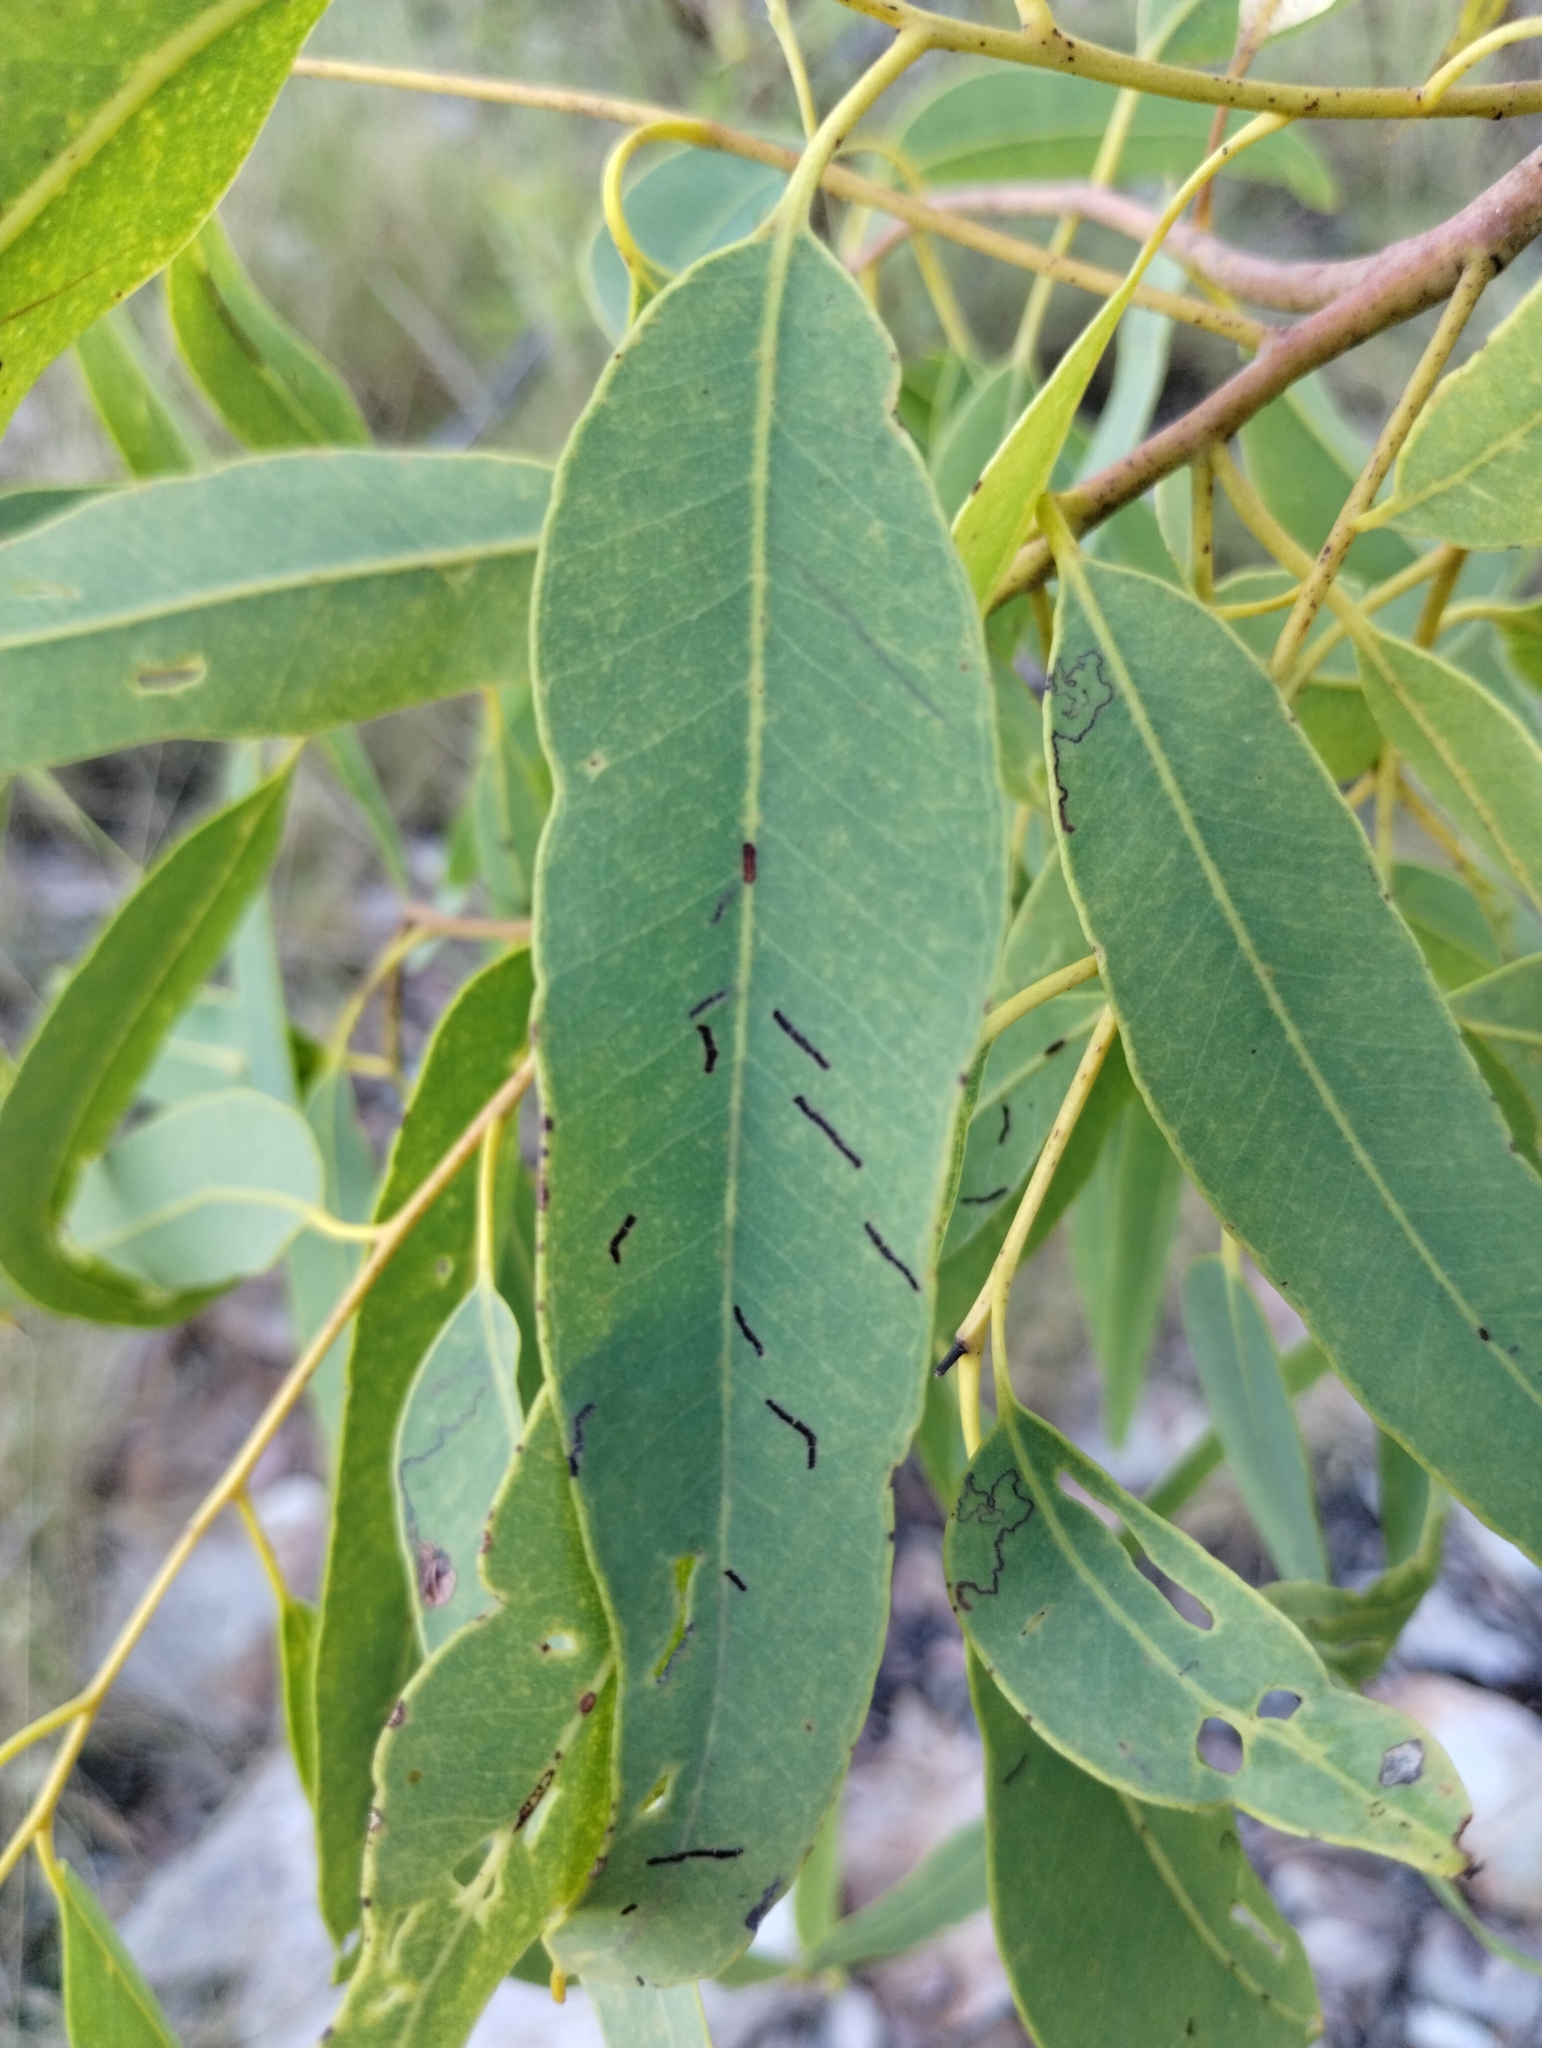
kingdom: Plantae
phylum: Tracheophyta
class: Magnoliopsida
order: Myrtales
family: Myrtaceae
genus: Eucalyptus
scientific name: Eucalyptus phoenicea
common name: Gnaingar
